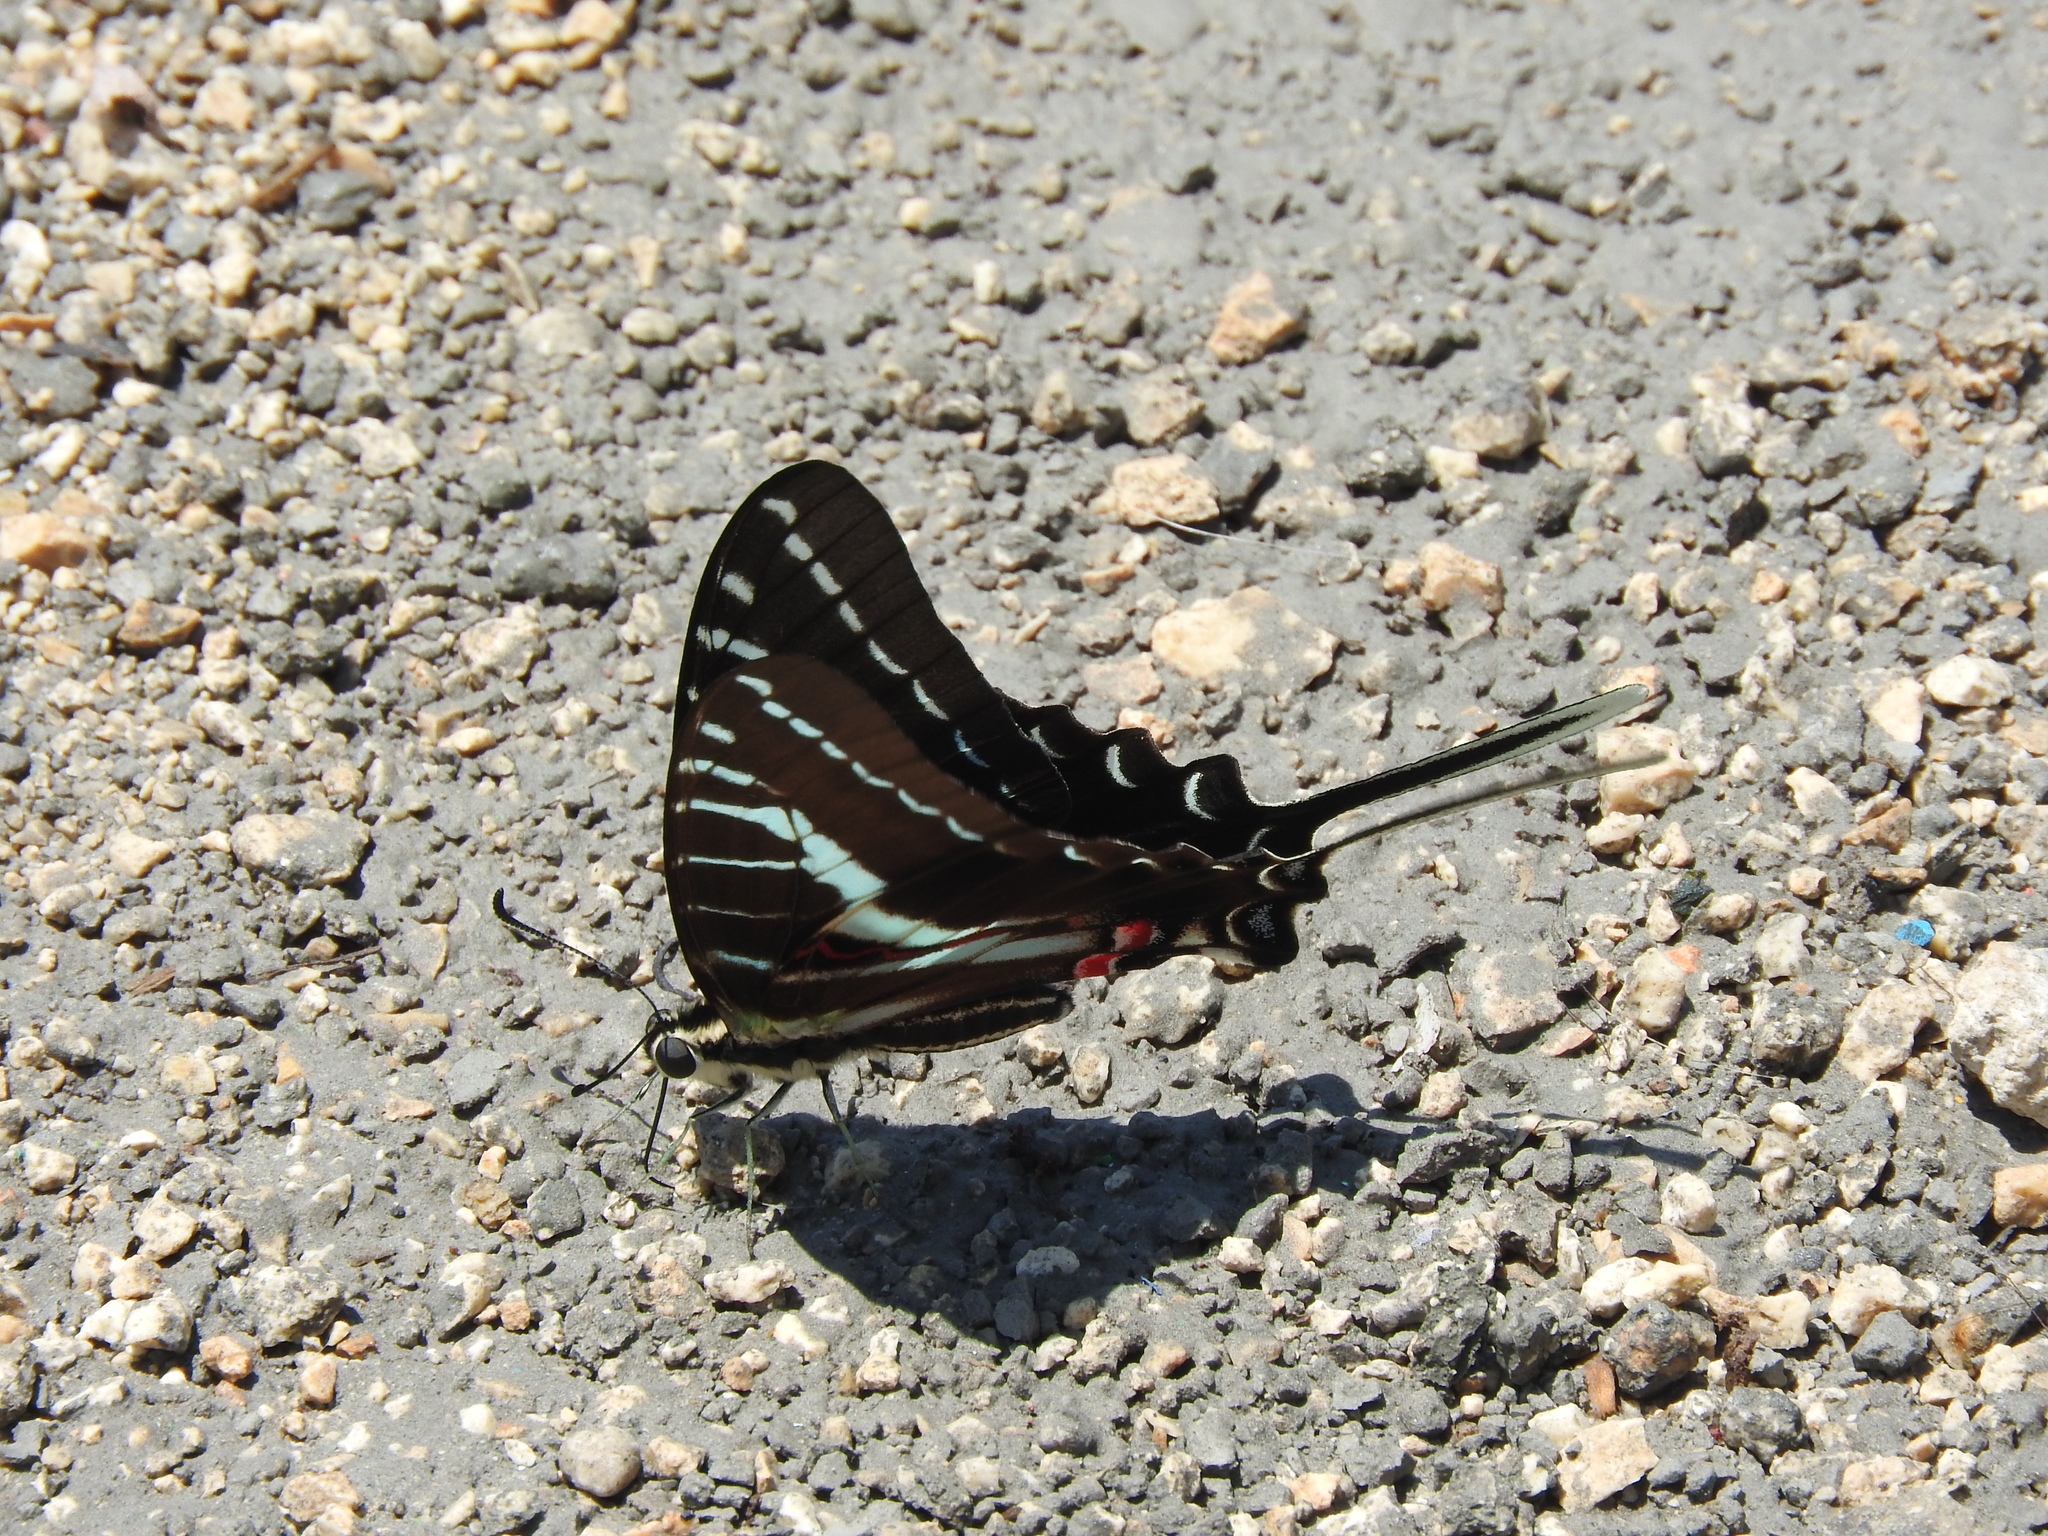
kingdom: Animalia
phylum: Arthropoda
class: Insecta
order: Lepidoptera
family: Papilionidae
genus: Protographium
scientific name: Protographium philolaus
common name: Dark zebra swallowtail
